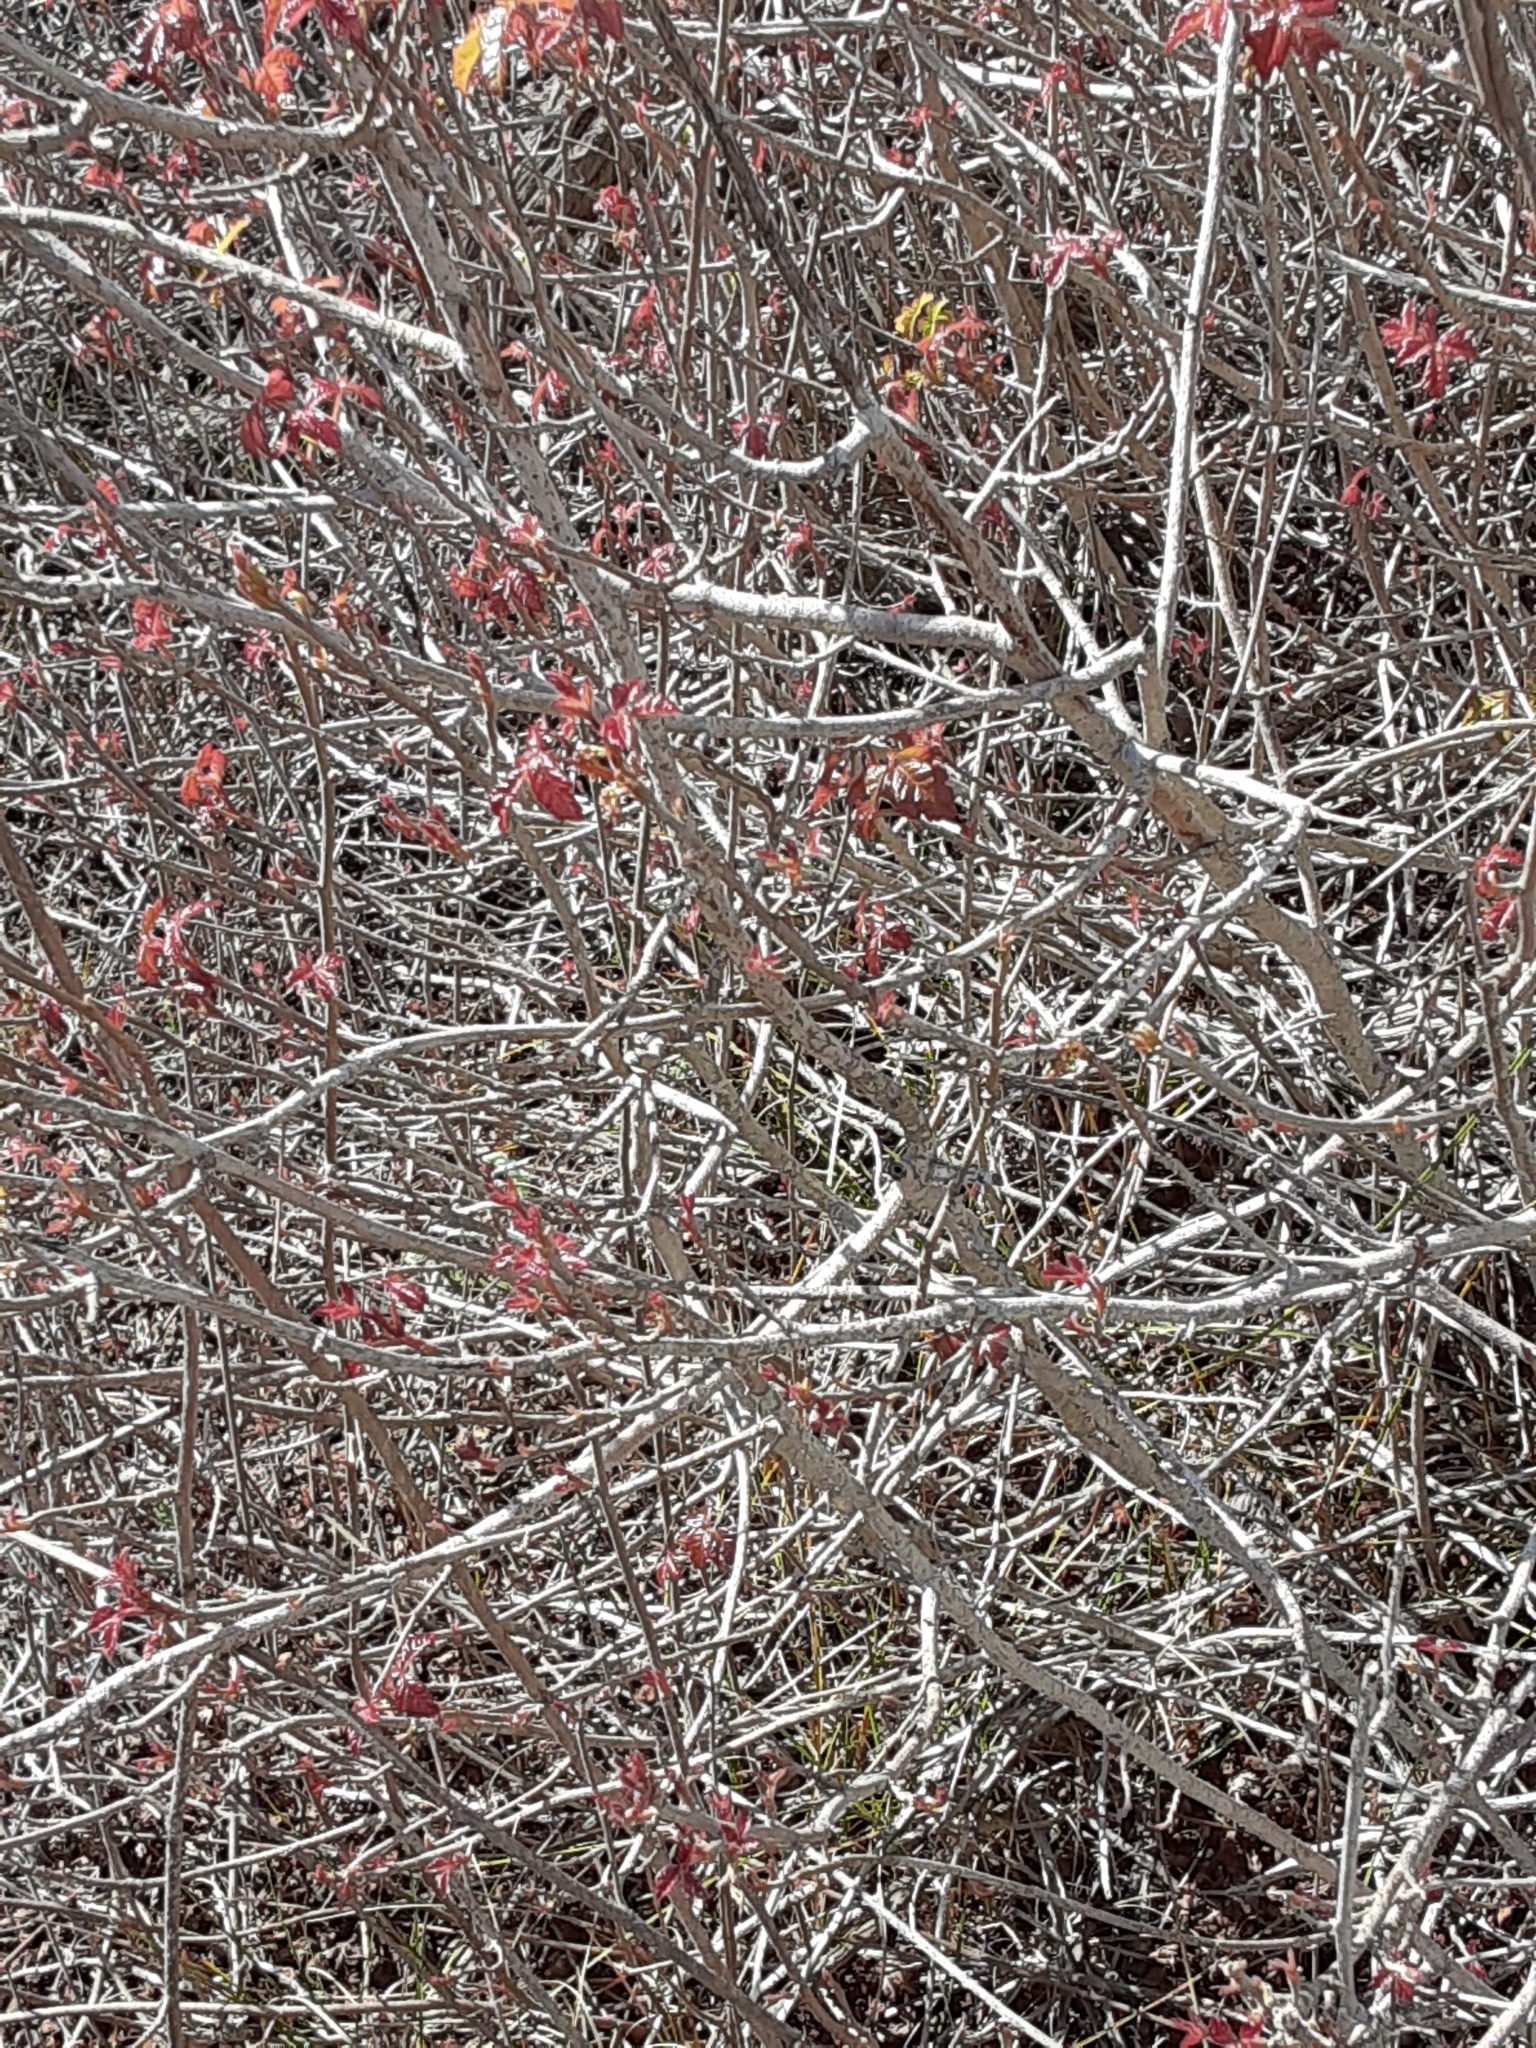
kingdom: Plantae
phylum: Tracheophyta
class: Magnoliopsida
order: Sapindales
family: Anacardiaceae
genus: Toxicodendron
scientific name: Toxicodendron diversilobum
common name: Pacific poison-oak
